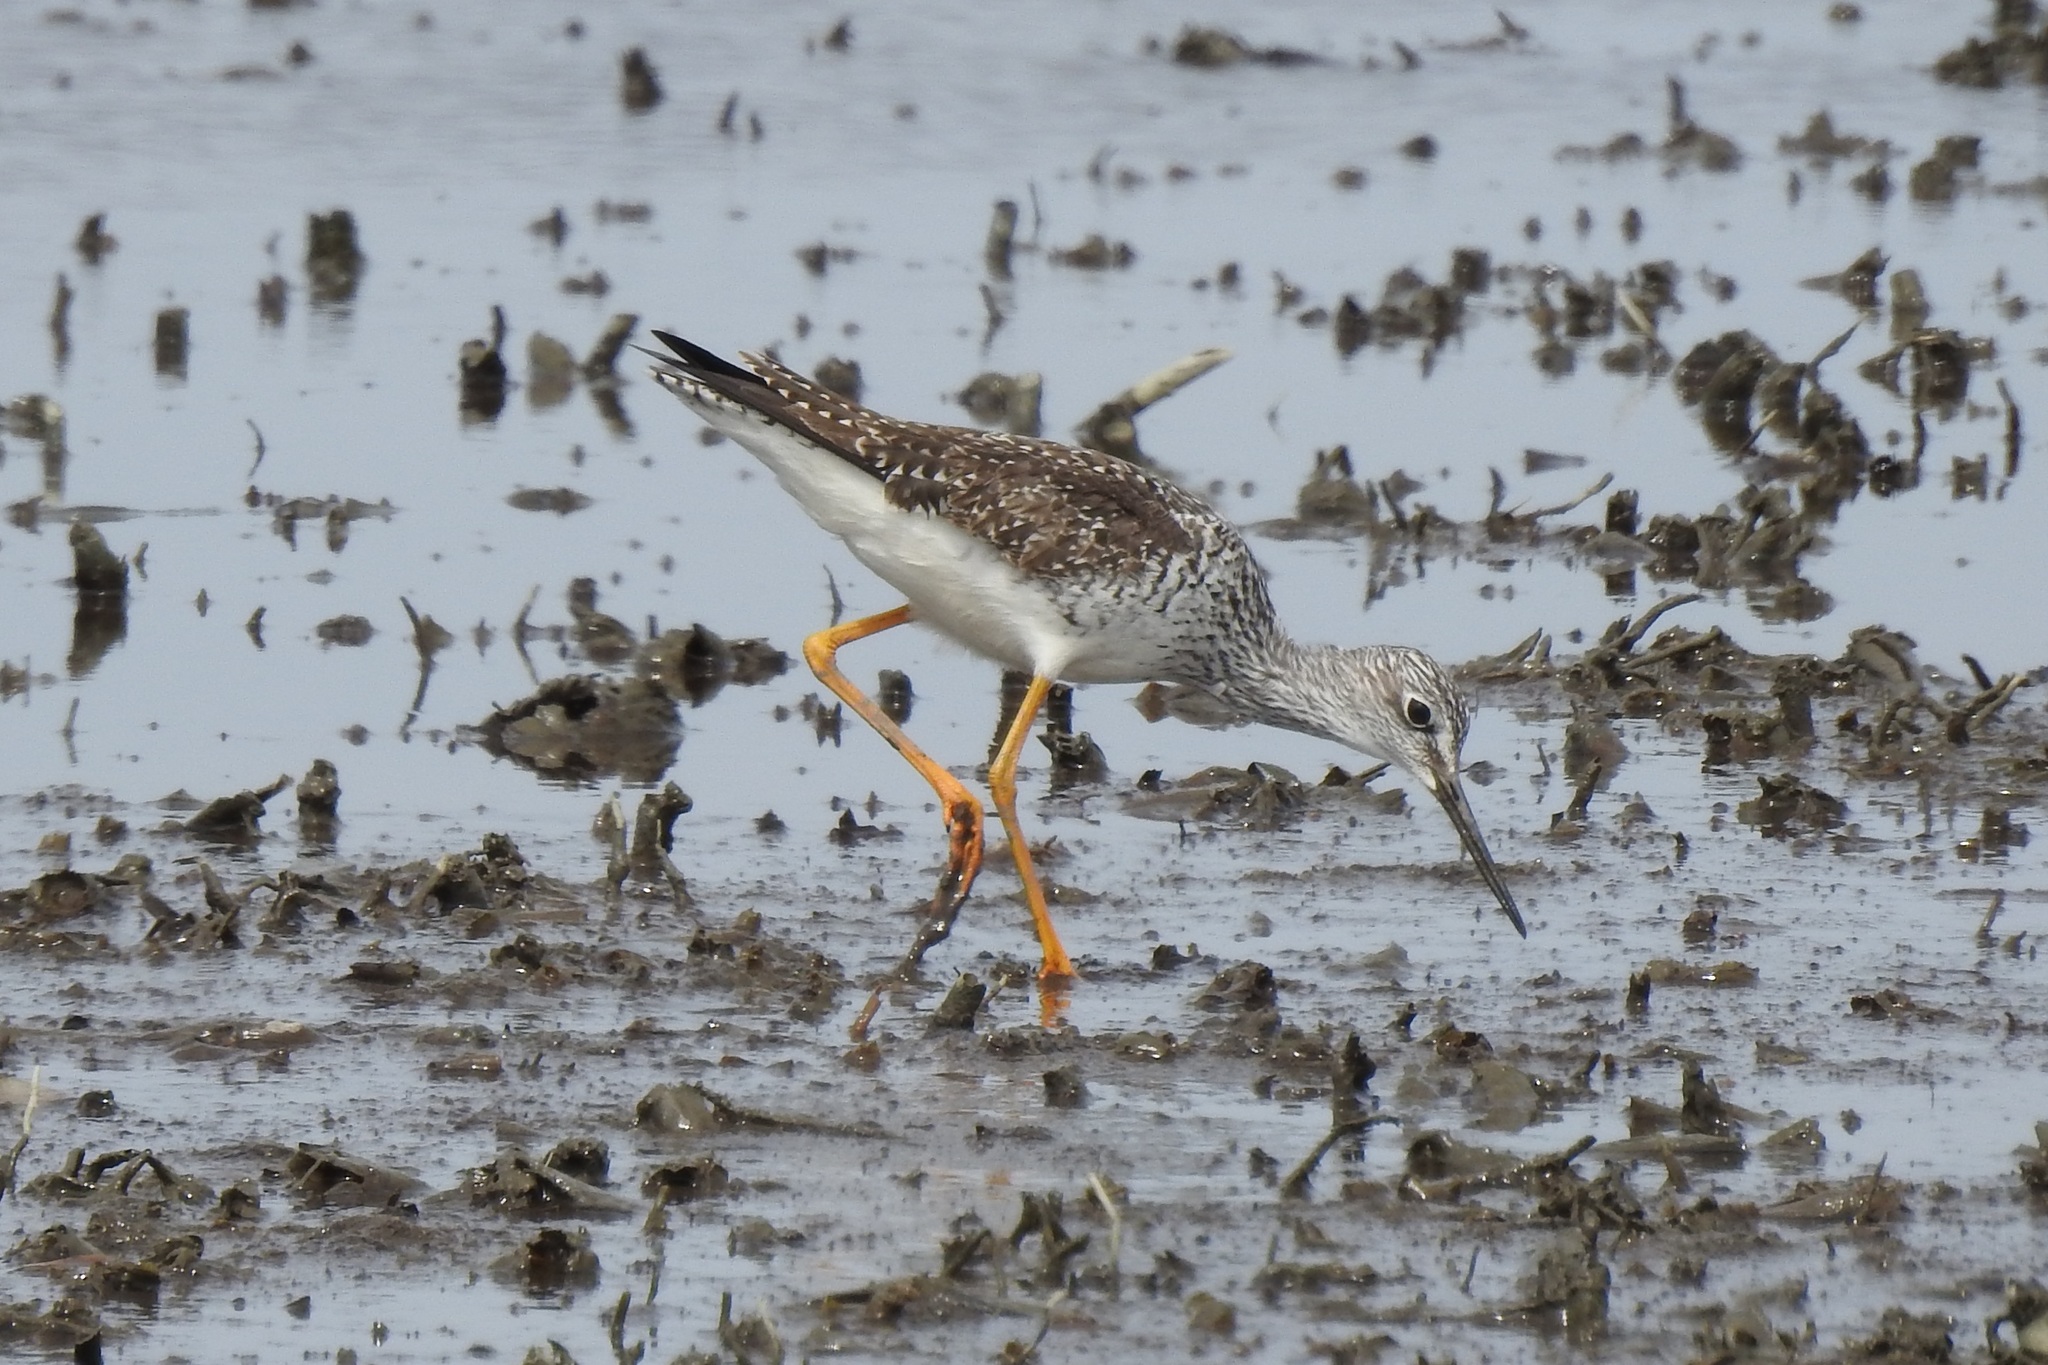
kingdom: Animalia
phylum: Chordata
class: Aves
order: Charadriiformes
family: Scolopacidae
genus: Tringa
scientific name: Tringa melanoleuca
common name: Greater yellowlegs
